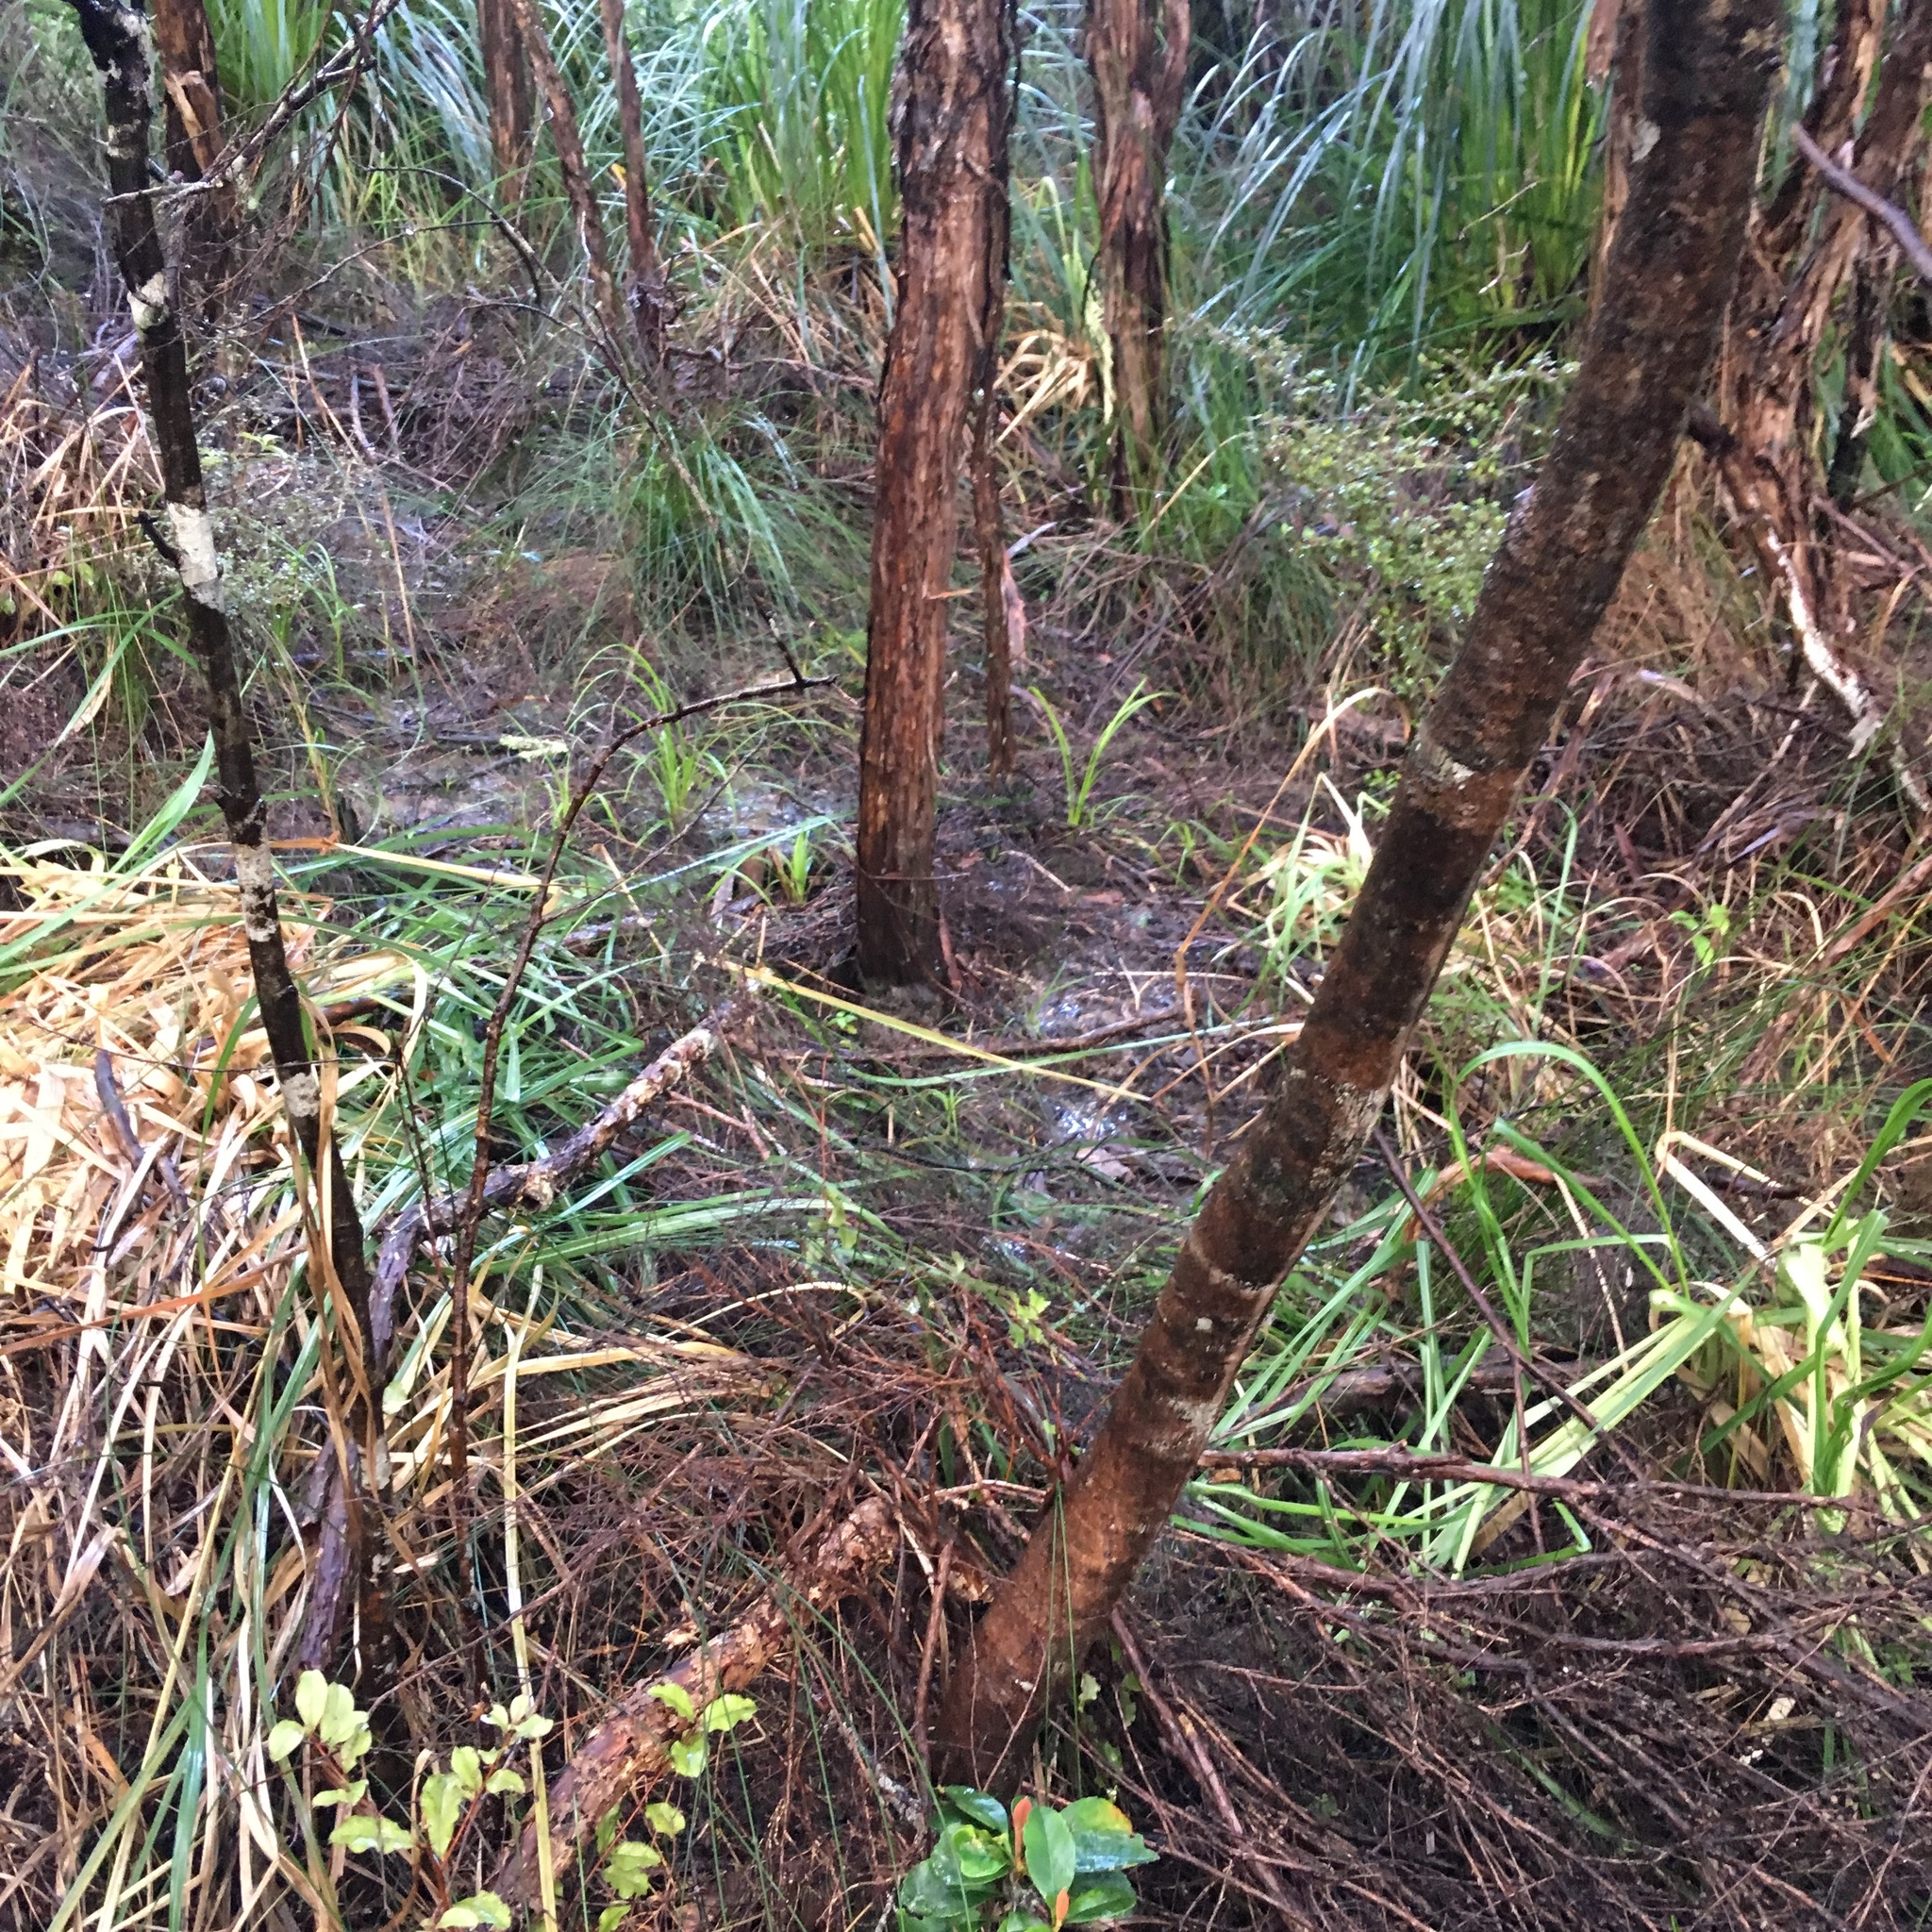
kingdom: Plantae
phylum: Tracheophyta
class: Magnoliopsida
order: Gentianales
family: Loganiaceae
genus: Geniostoma
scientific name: Geniostoma ligustrifolium
